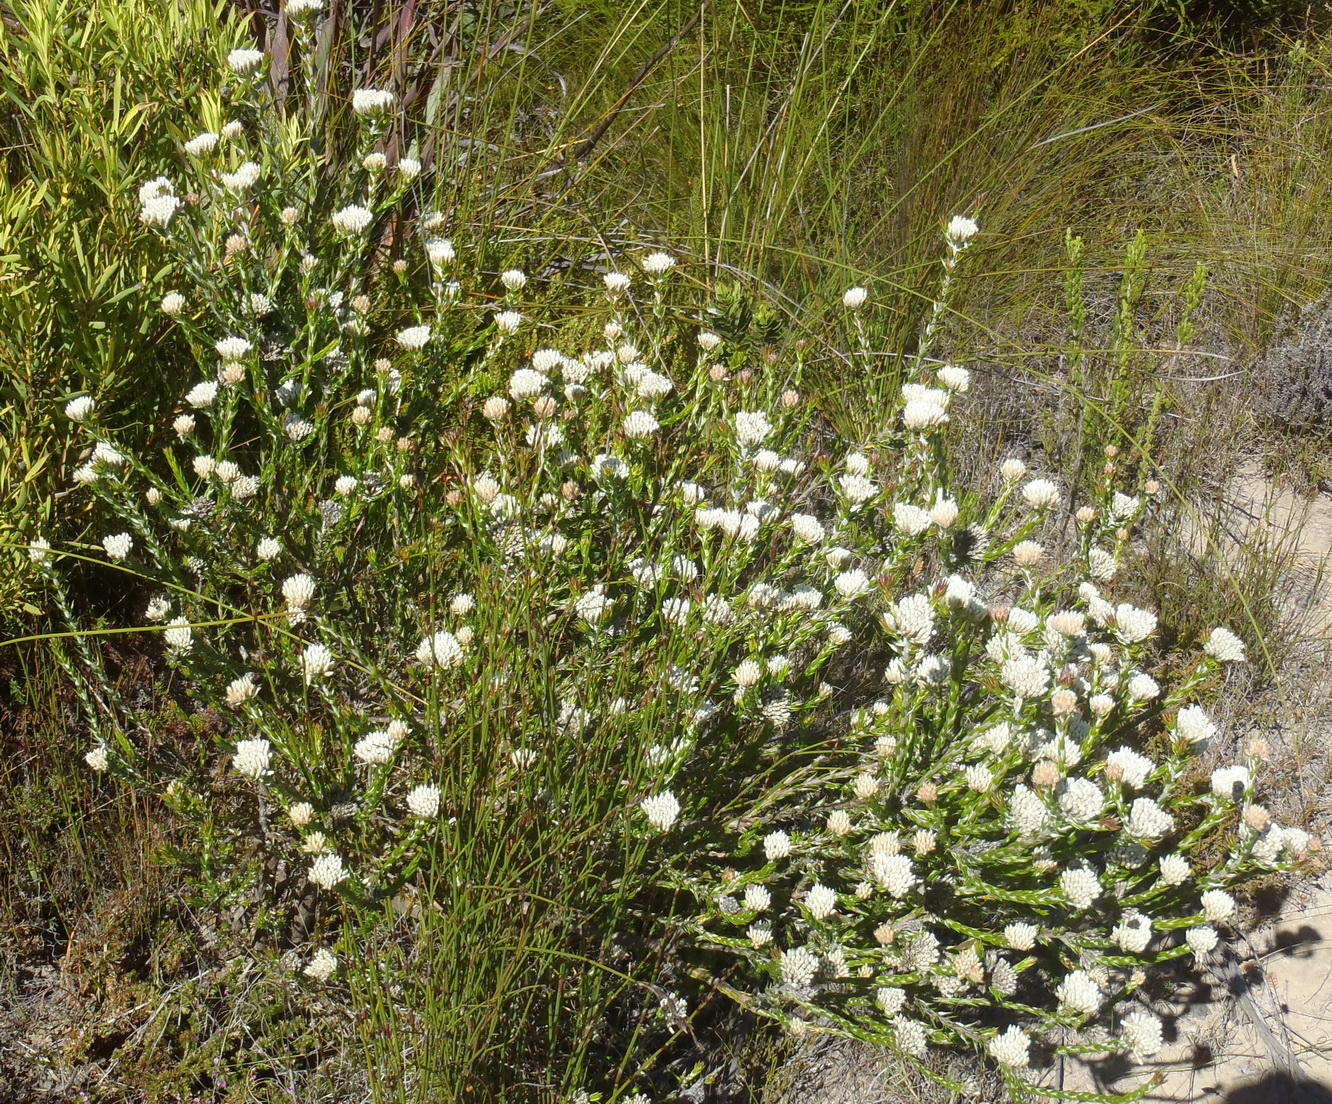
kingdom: Plantae
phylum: Tracheophyta
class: Magnoliopsida
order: Asterales
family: Asteraceae
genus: Metalasia
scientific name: Metalasia pulcherrima
